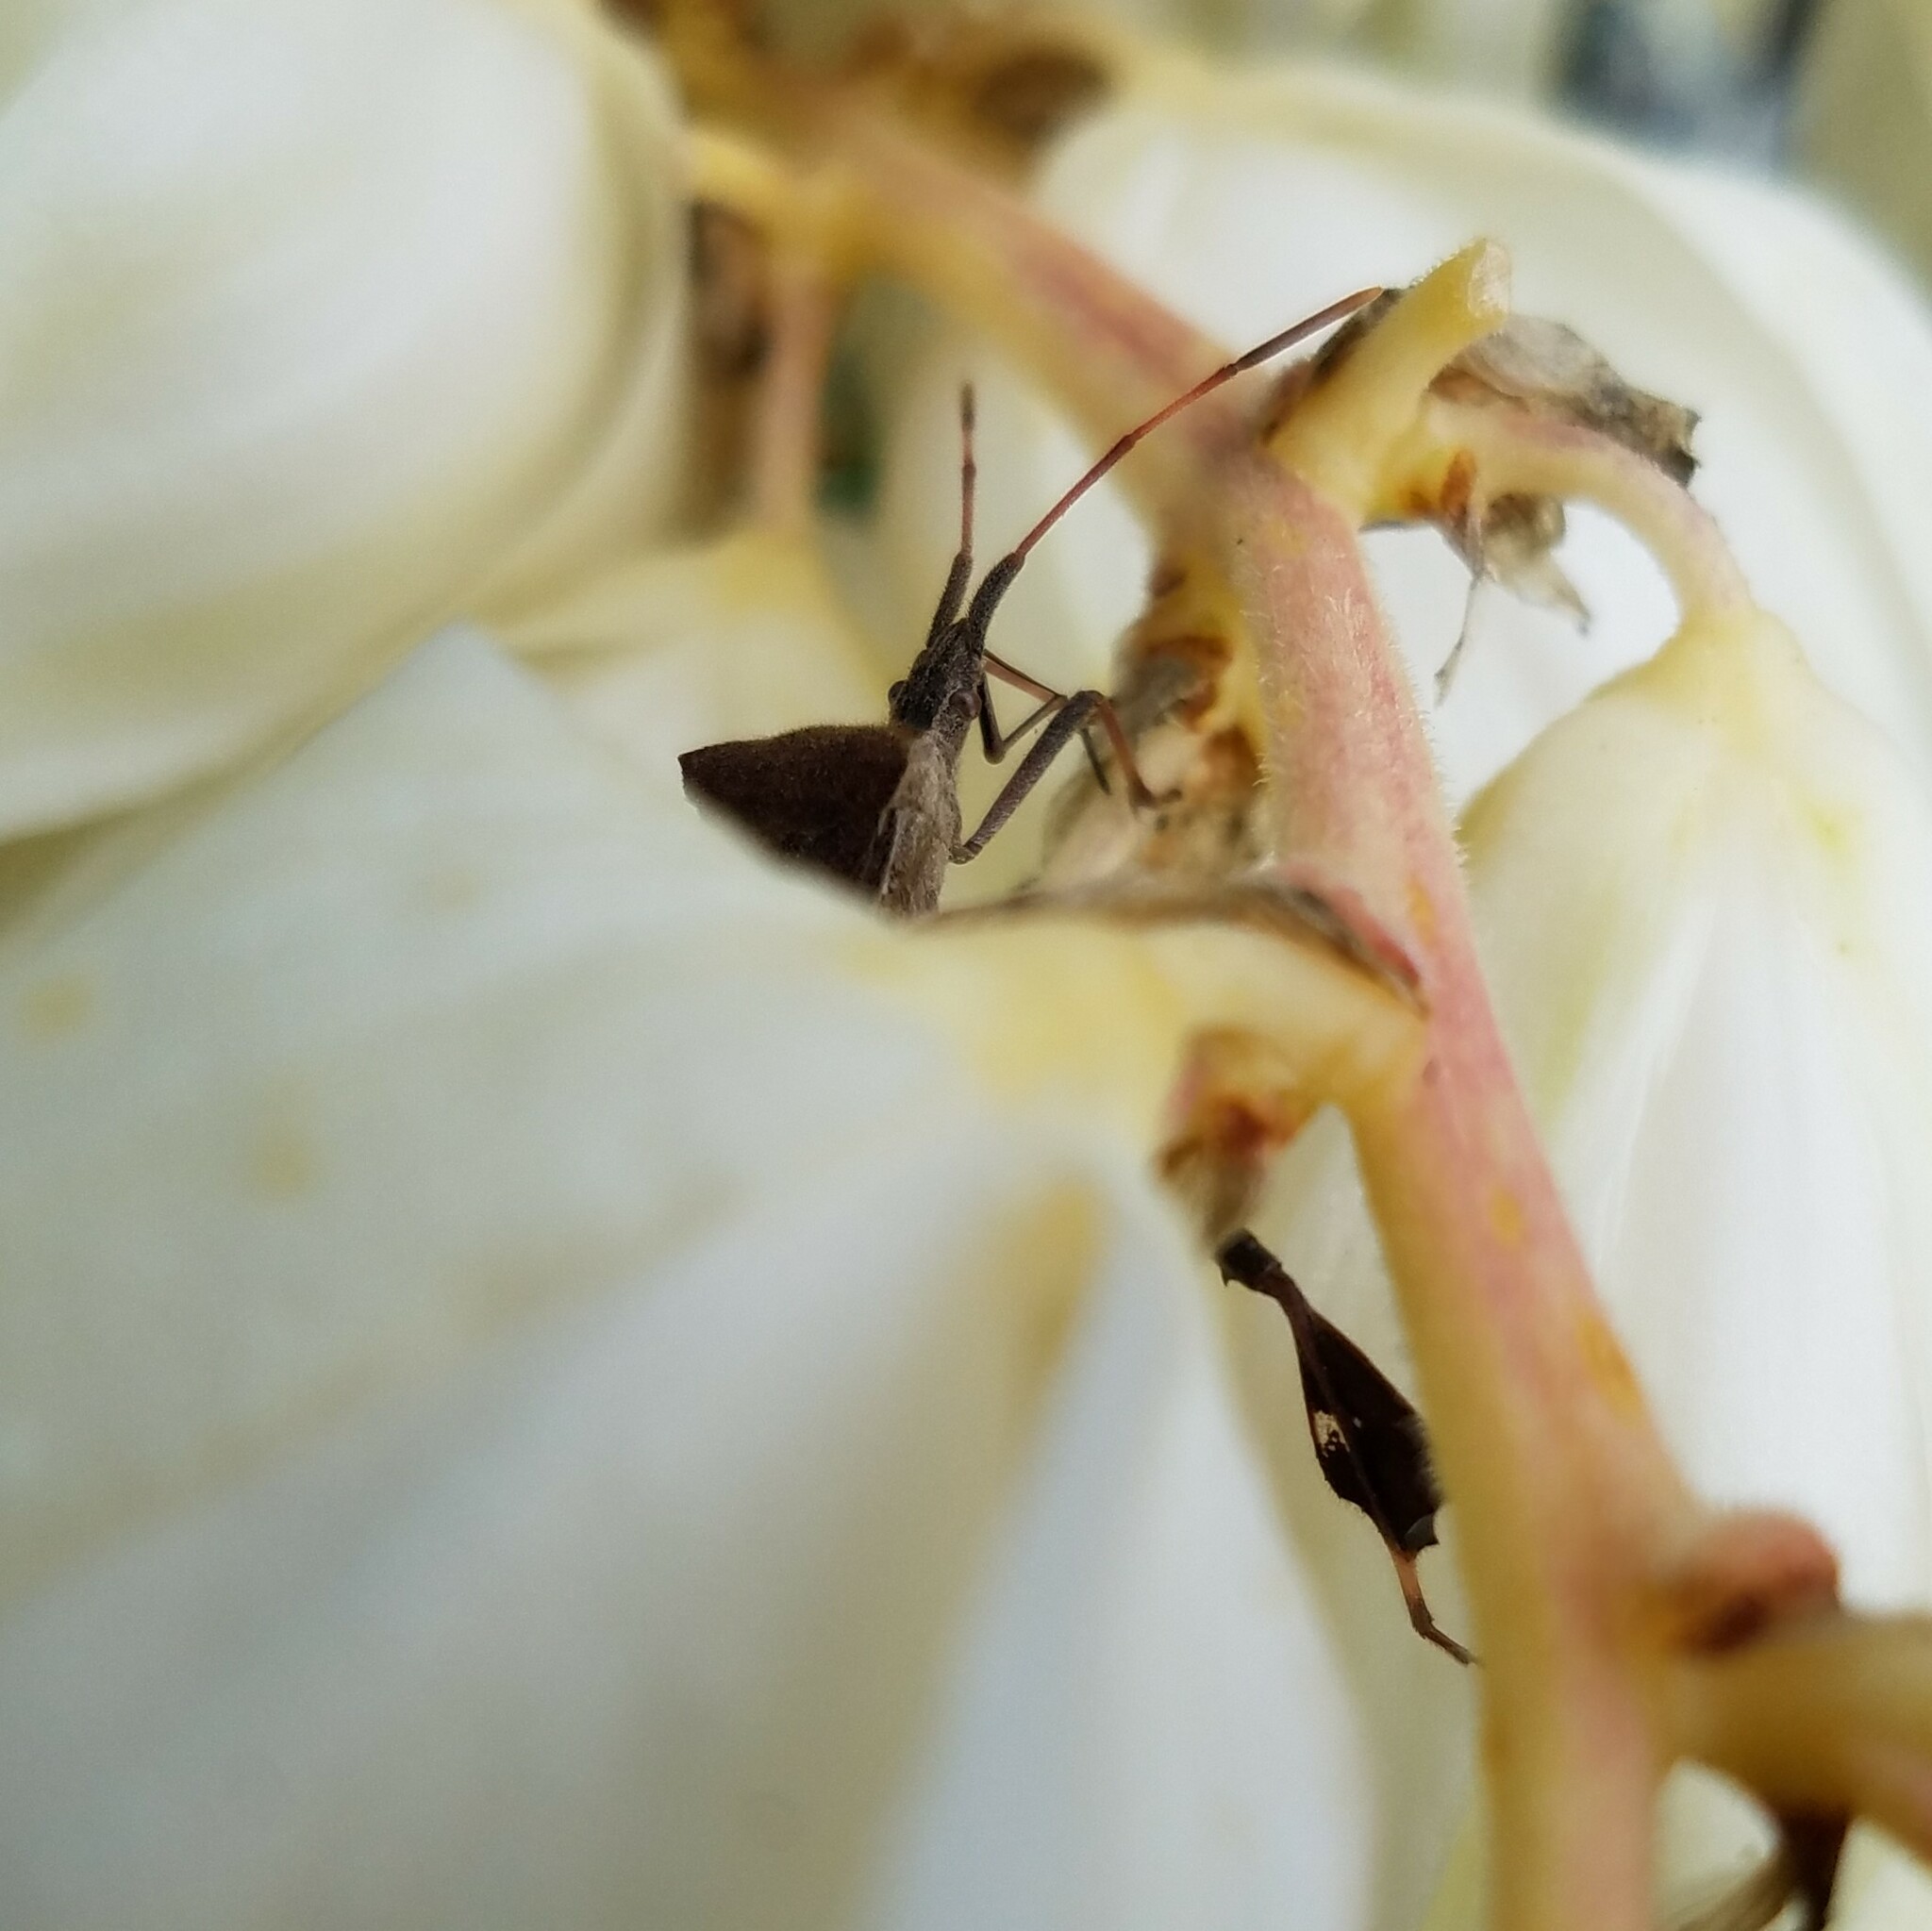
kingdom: Animalia
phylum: Arthropoda
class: Insecta
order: Hemiptera
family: Coreidae
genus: Leptoglossus
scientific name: Leptoglossus phyllopus
